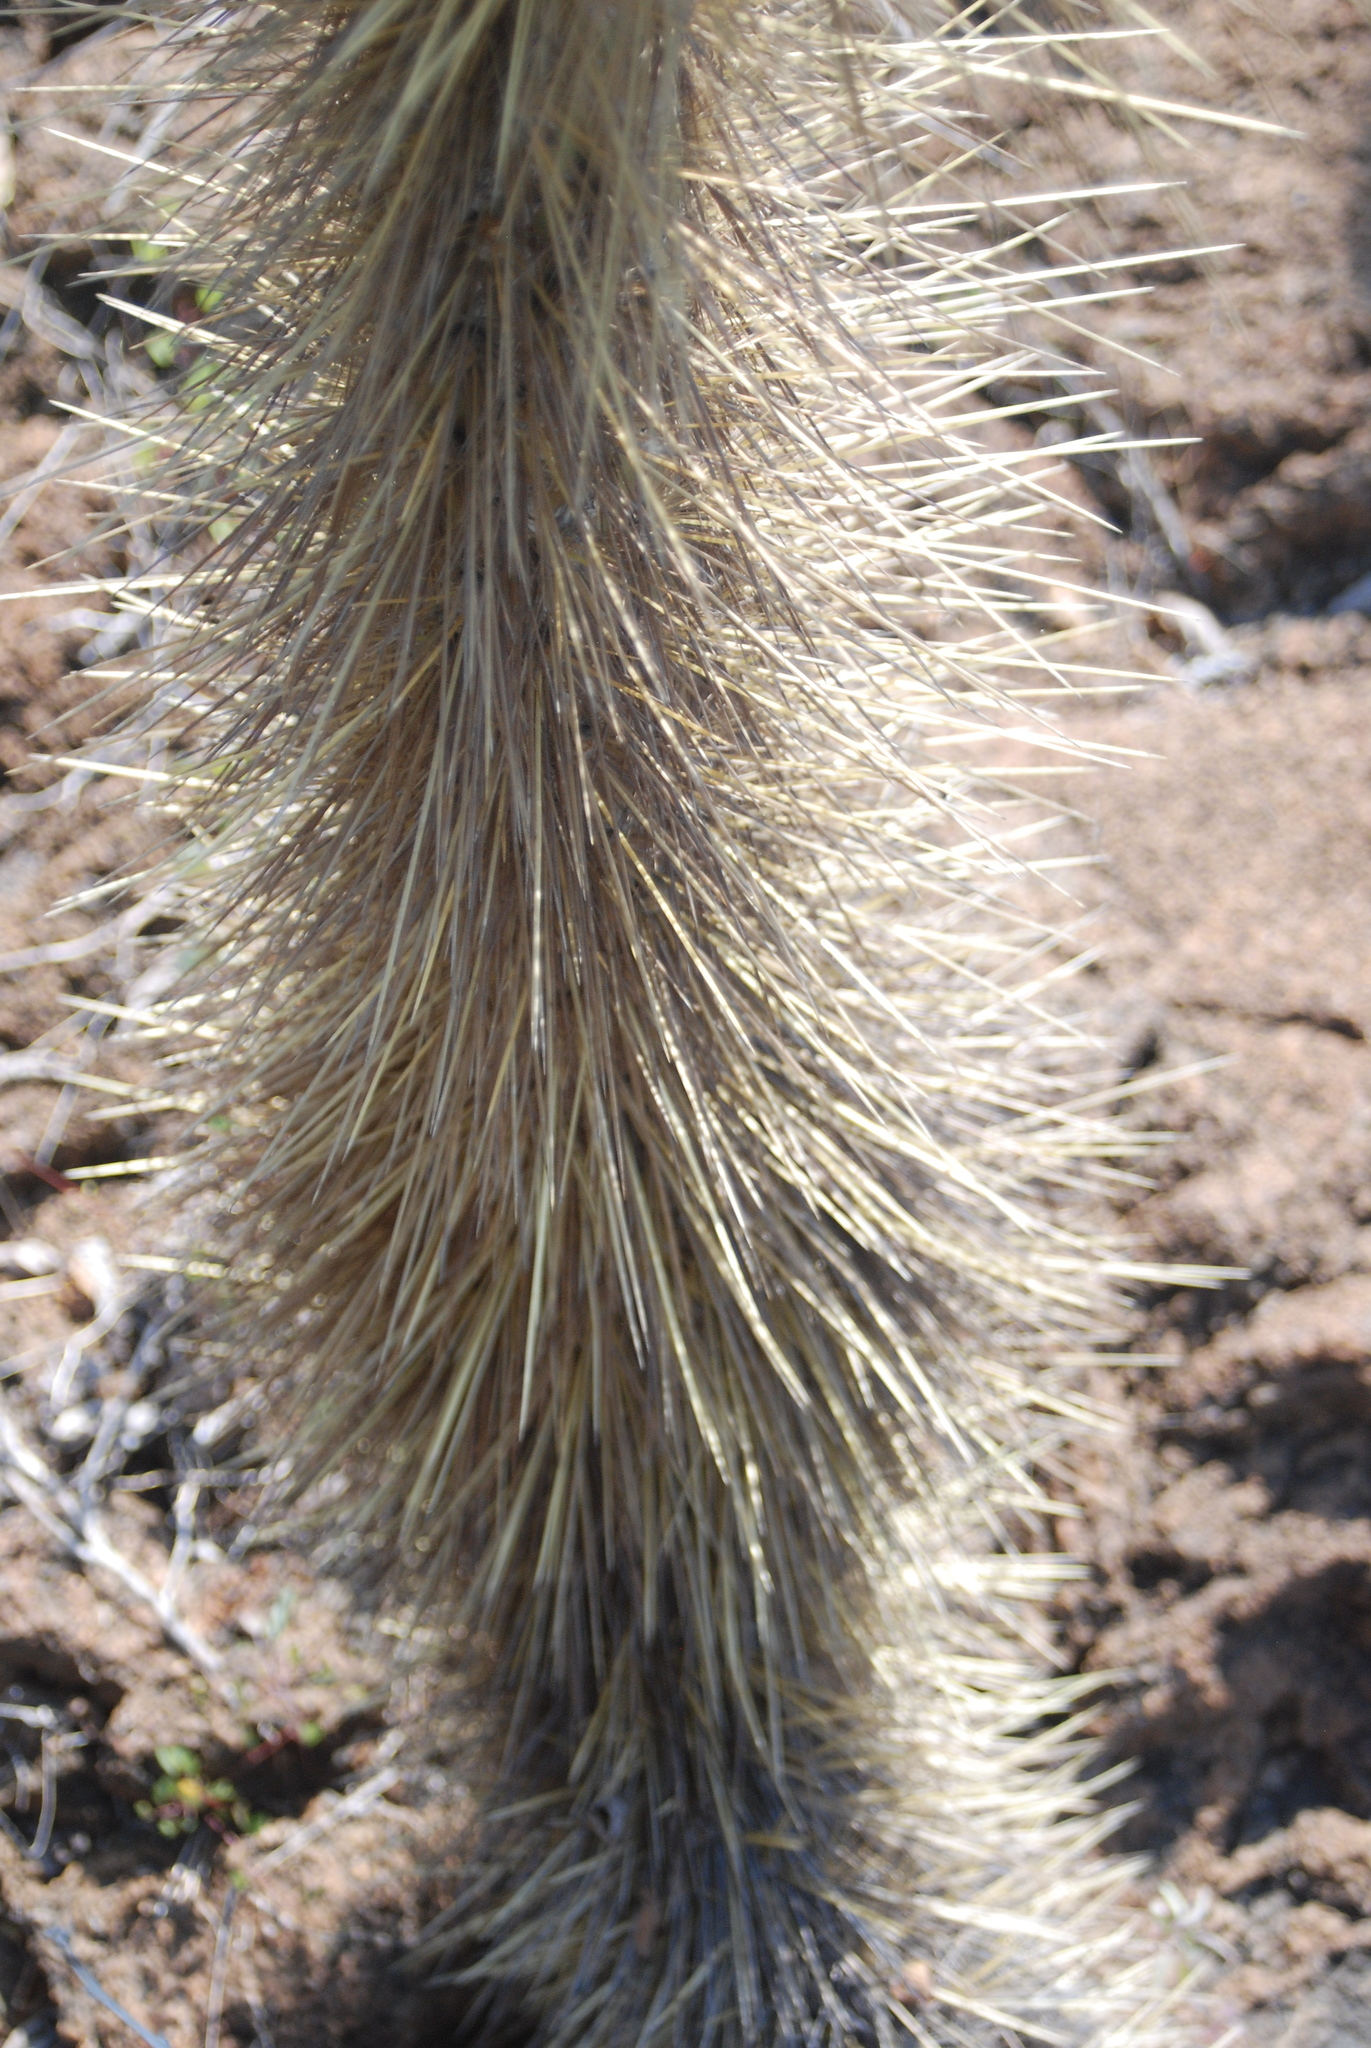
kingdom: Plantae
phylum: Tracheophyta
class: Magnoliopsida
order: Caryophyllales
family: Cactaceae
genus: Opuntia
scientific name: Opuntia galapageia
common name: Galápagos prickly pear
